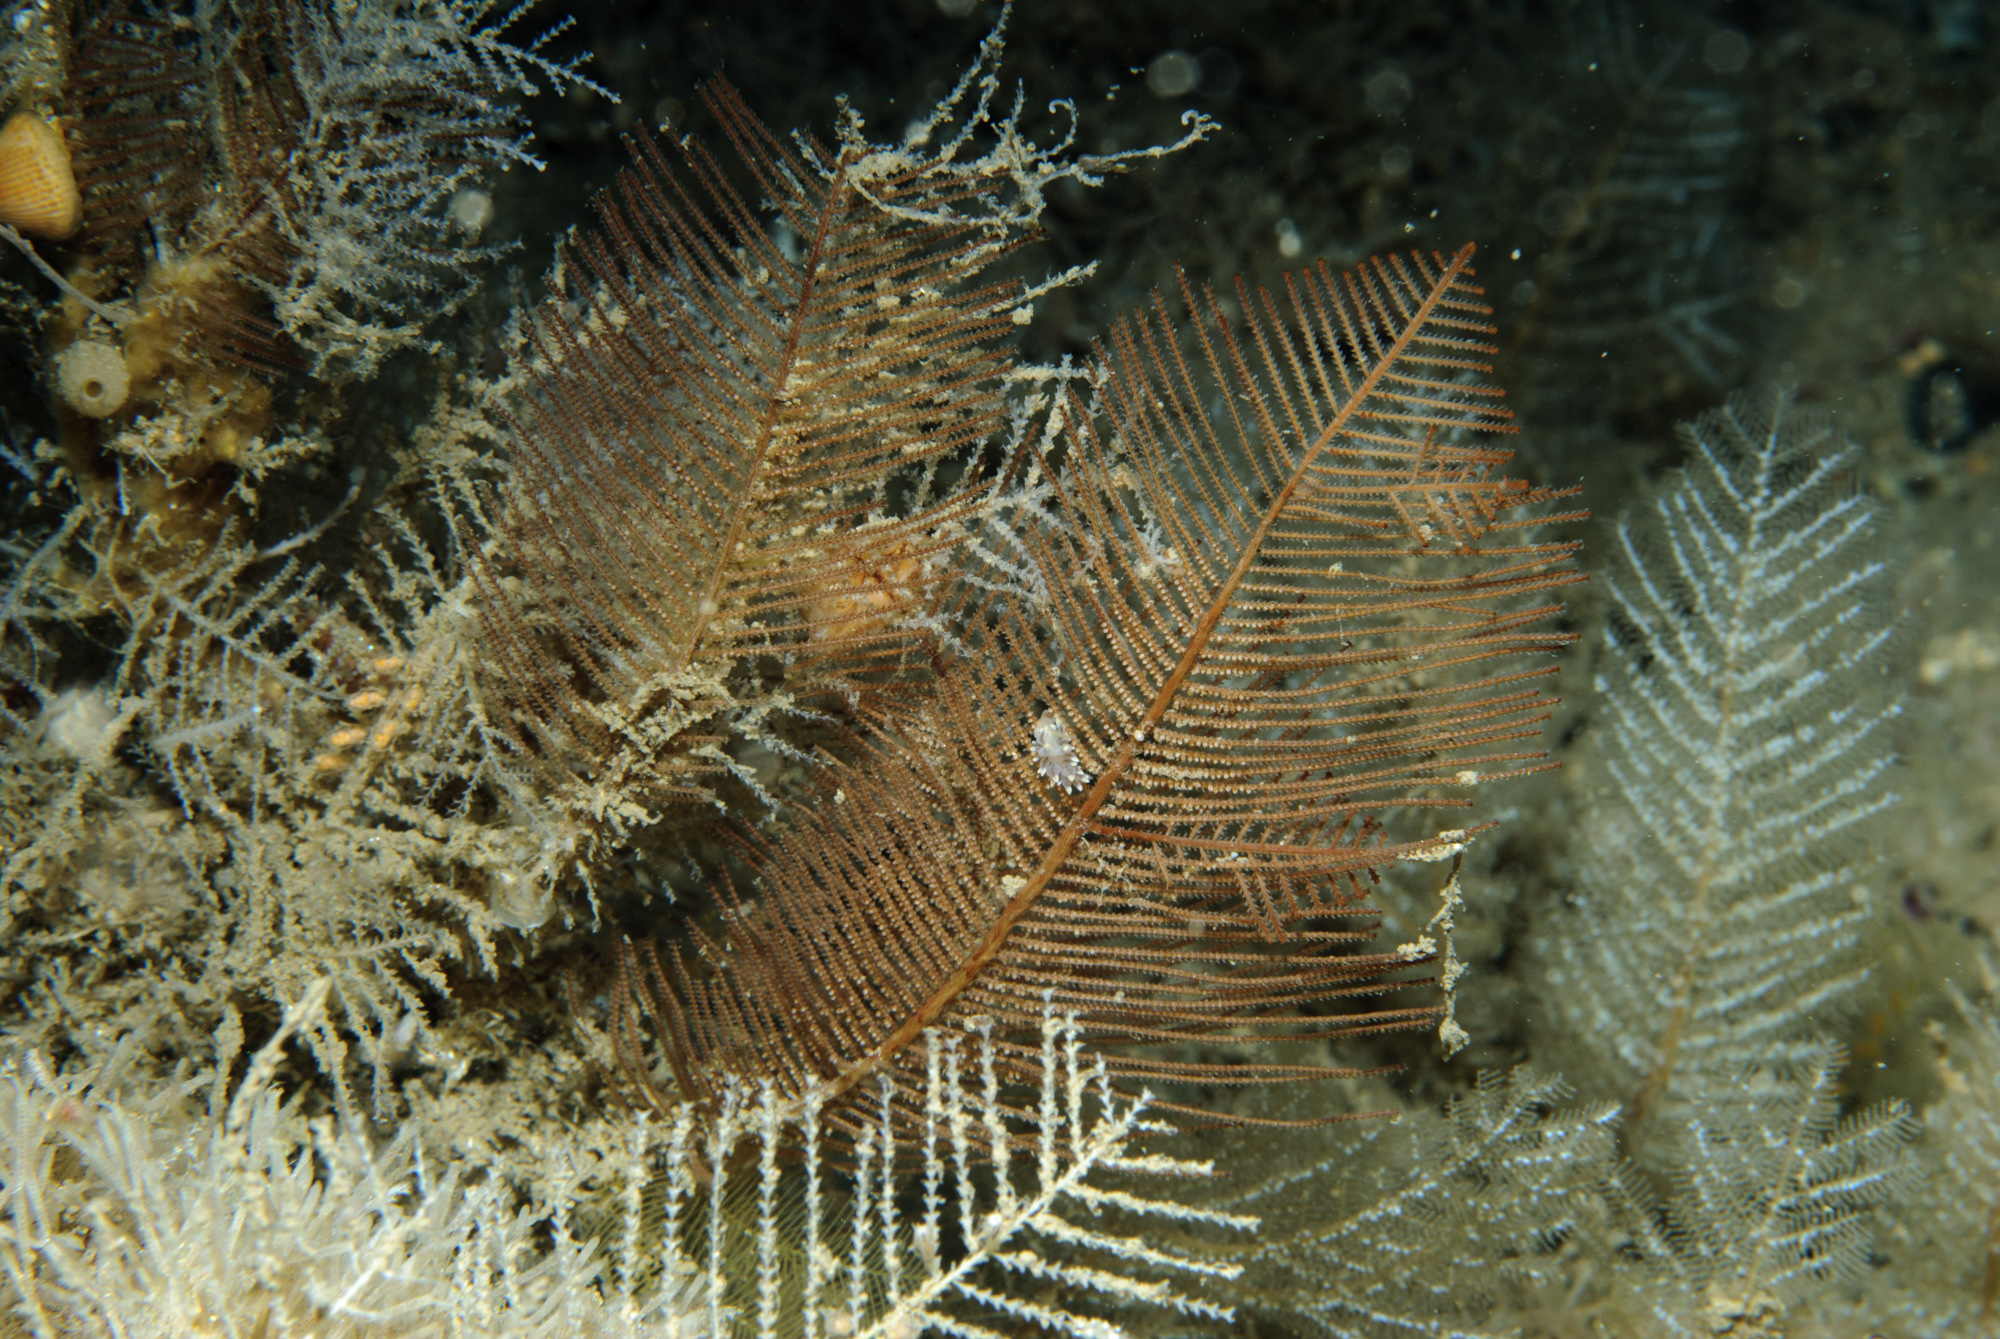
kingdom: Animalia
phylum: Cnidaria
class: Hydrozoa
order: Leptothecata
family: Sertulariidae
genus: Diphasia
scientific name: Diphasia alata
